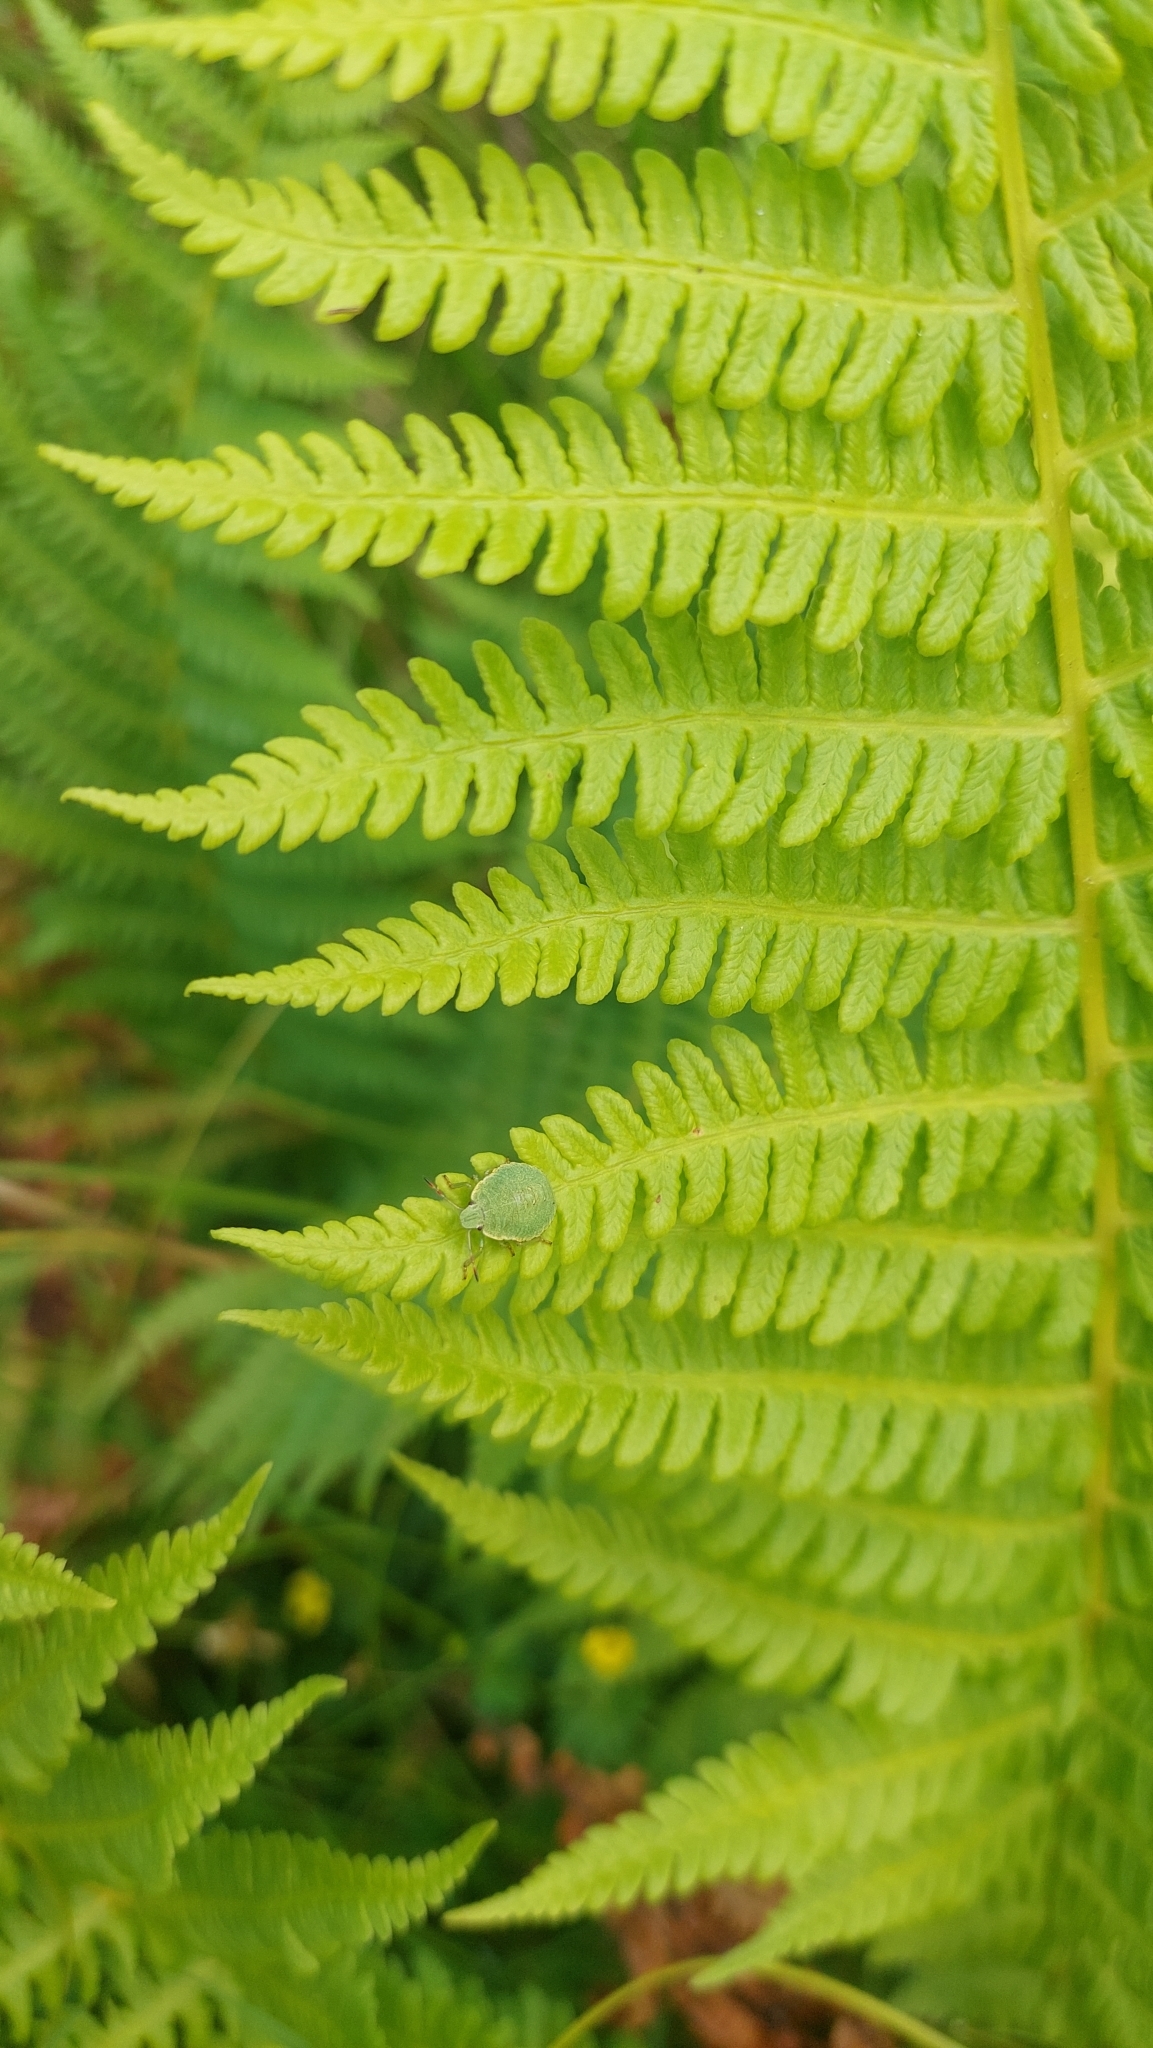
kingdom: Animalia
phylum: Arthropoda
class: Insecta
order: Hemiptera
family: Pentatomidae
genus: Palomena
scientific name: Palomena prasina
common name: Green shieldbug
